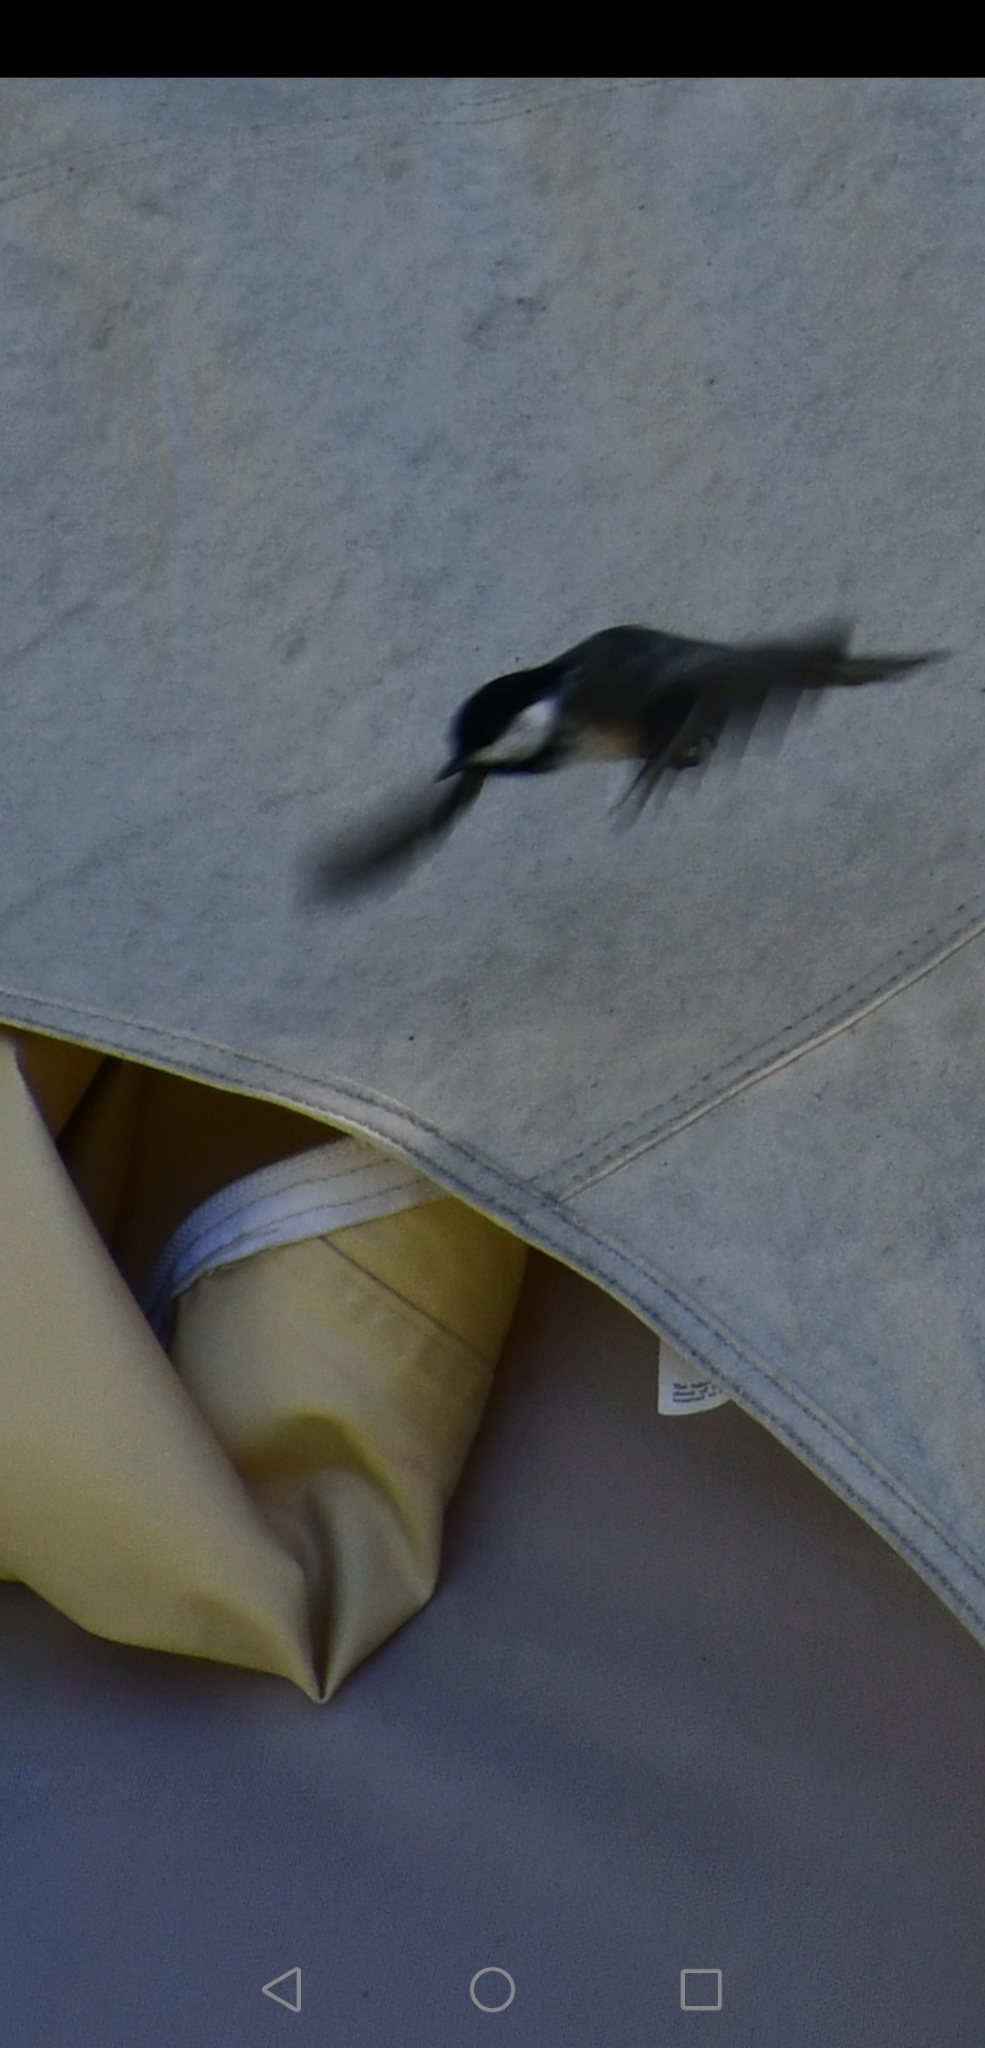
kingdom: Animalia
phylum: Chordata
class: Aves
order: Passeriformes
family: Paridae
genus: Poecile
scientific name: Poecile atricapillus
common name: Black-capped chickadee
